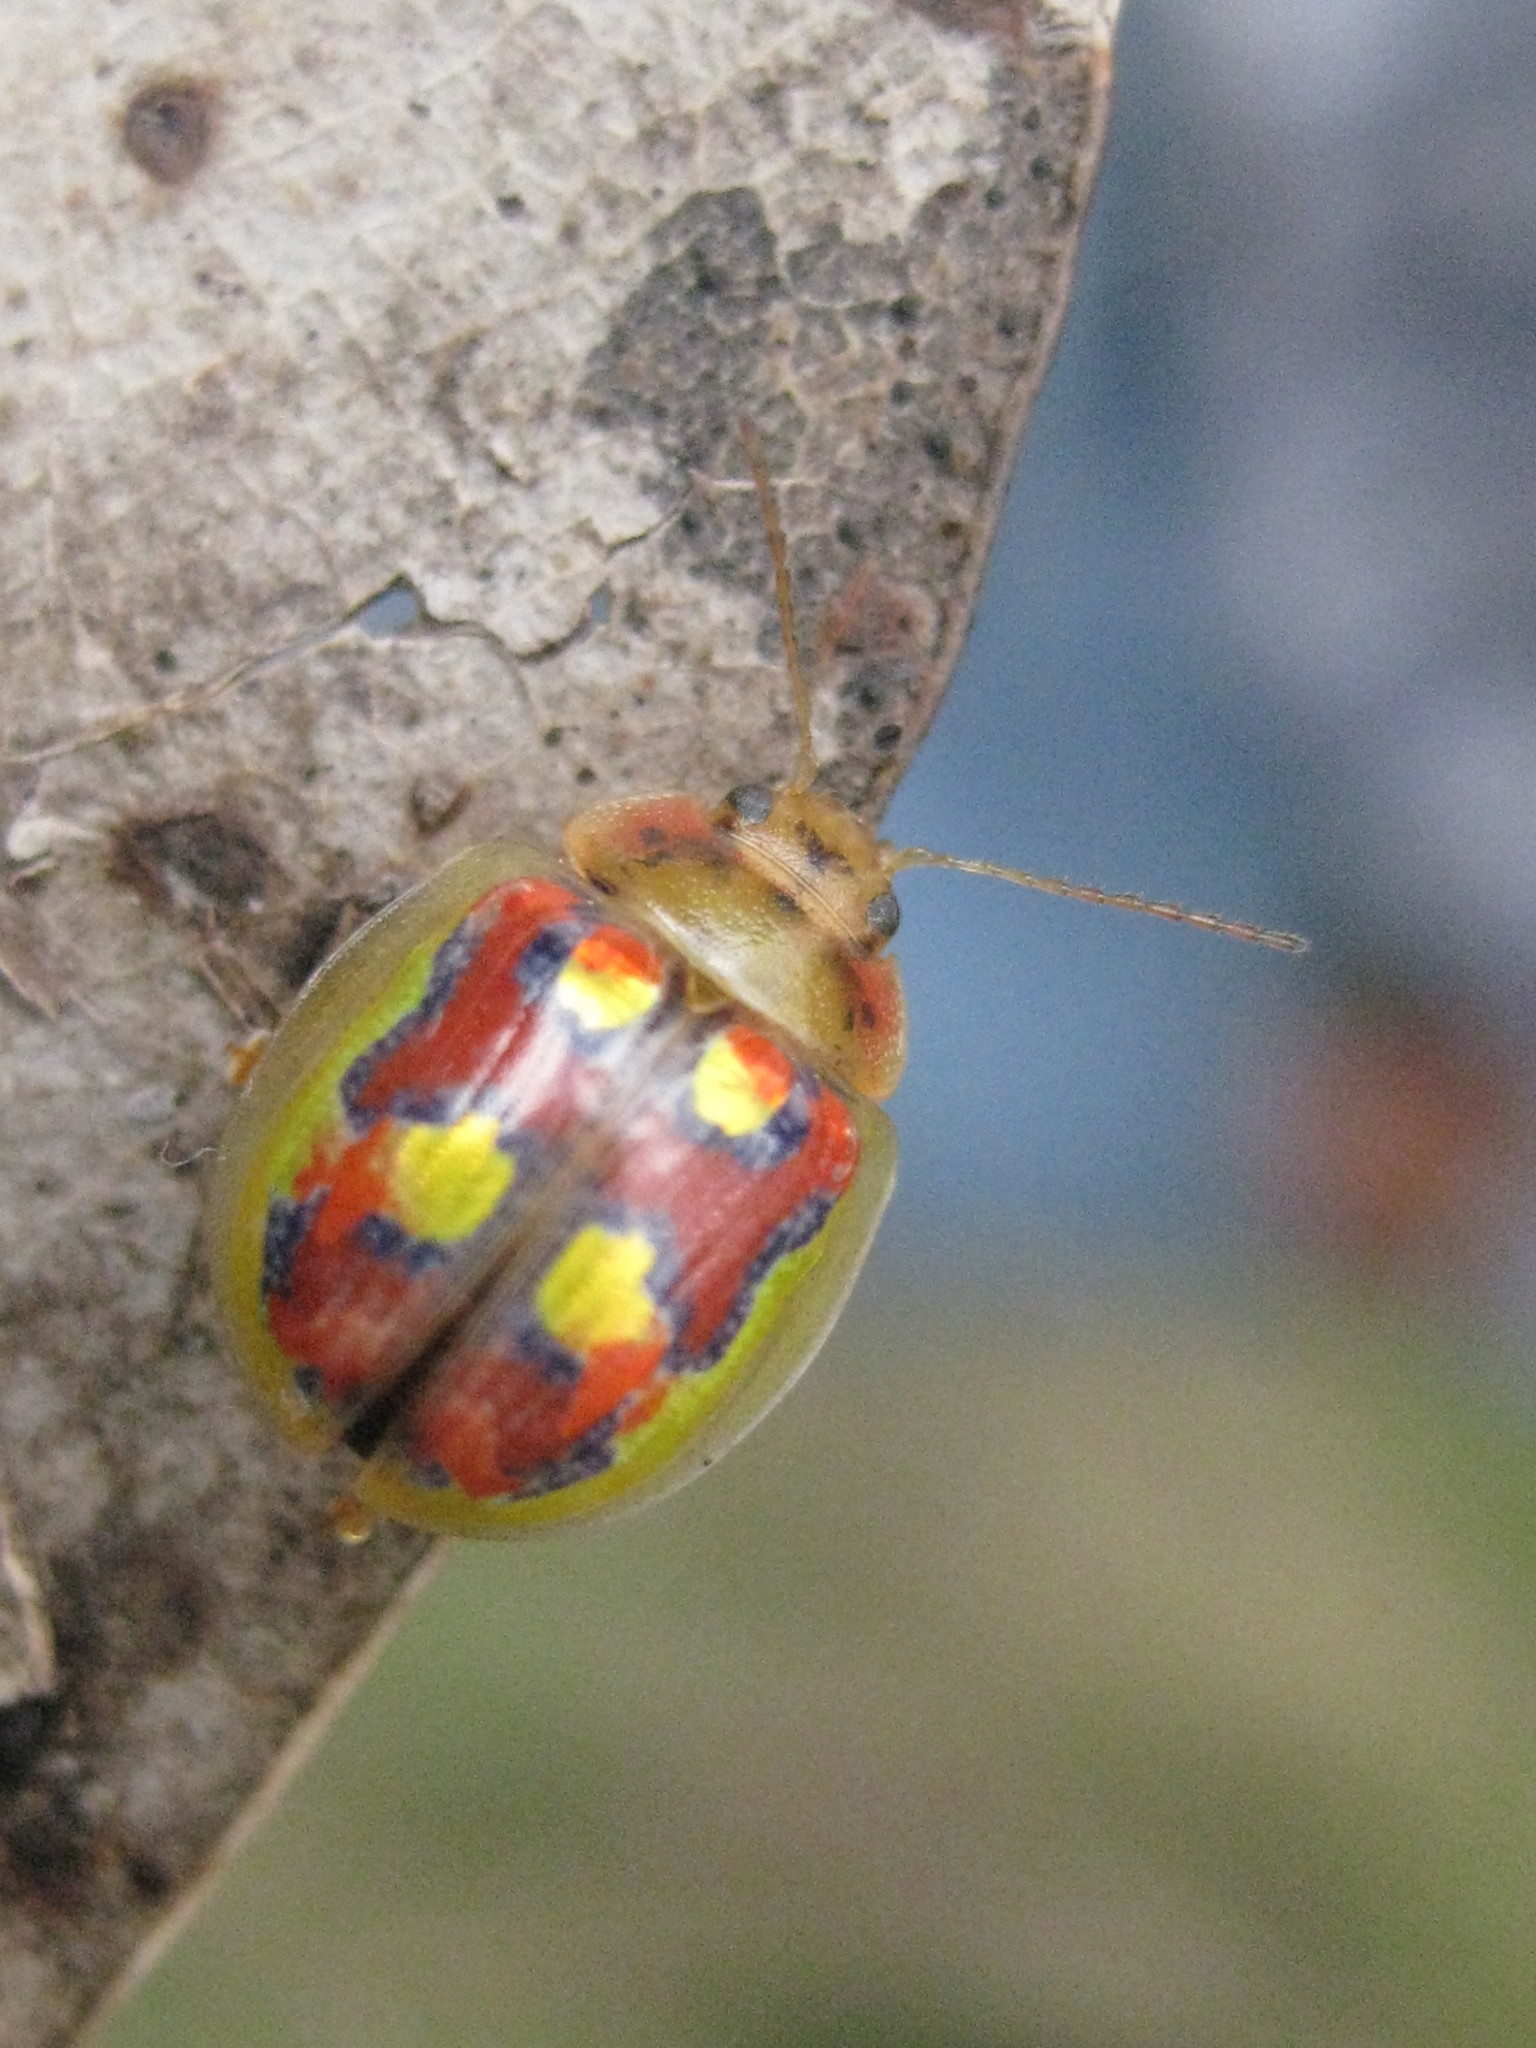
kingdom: Animalia
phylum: Arthropoda
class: Insecta
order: Coleoptera
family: Chrysomelidae
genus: Paropsisterna
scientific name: Paropsisterna
